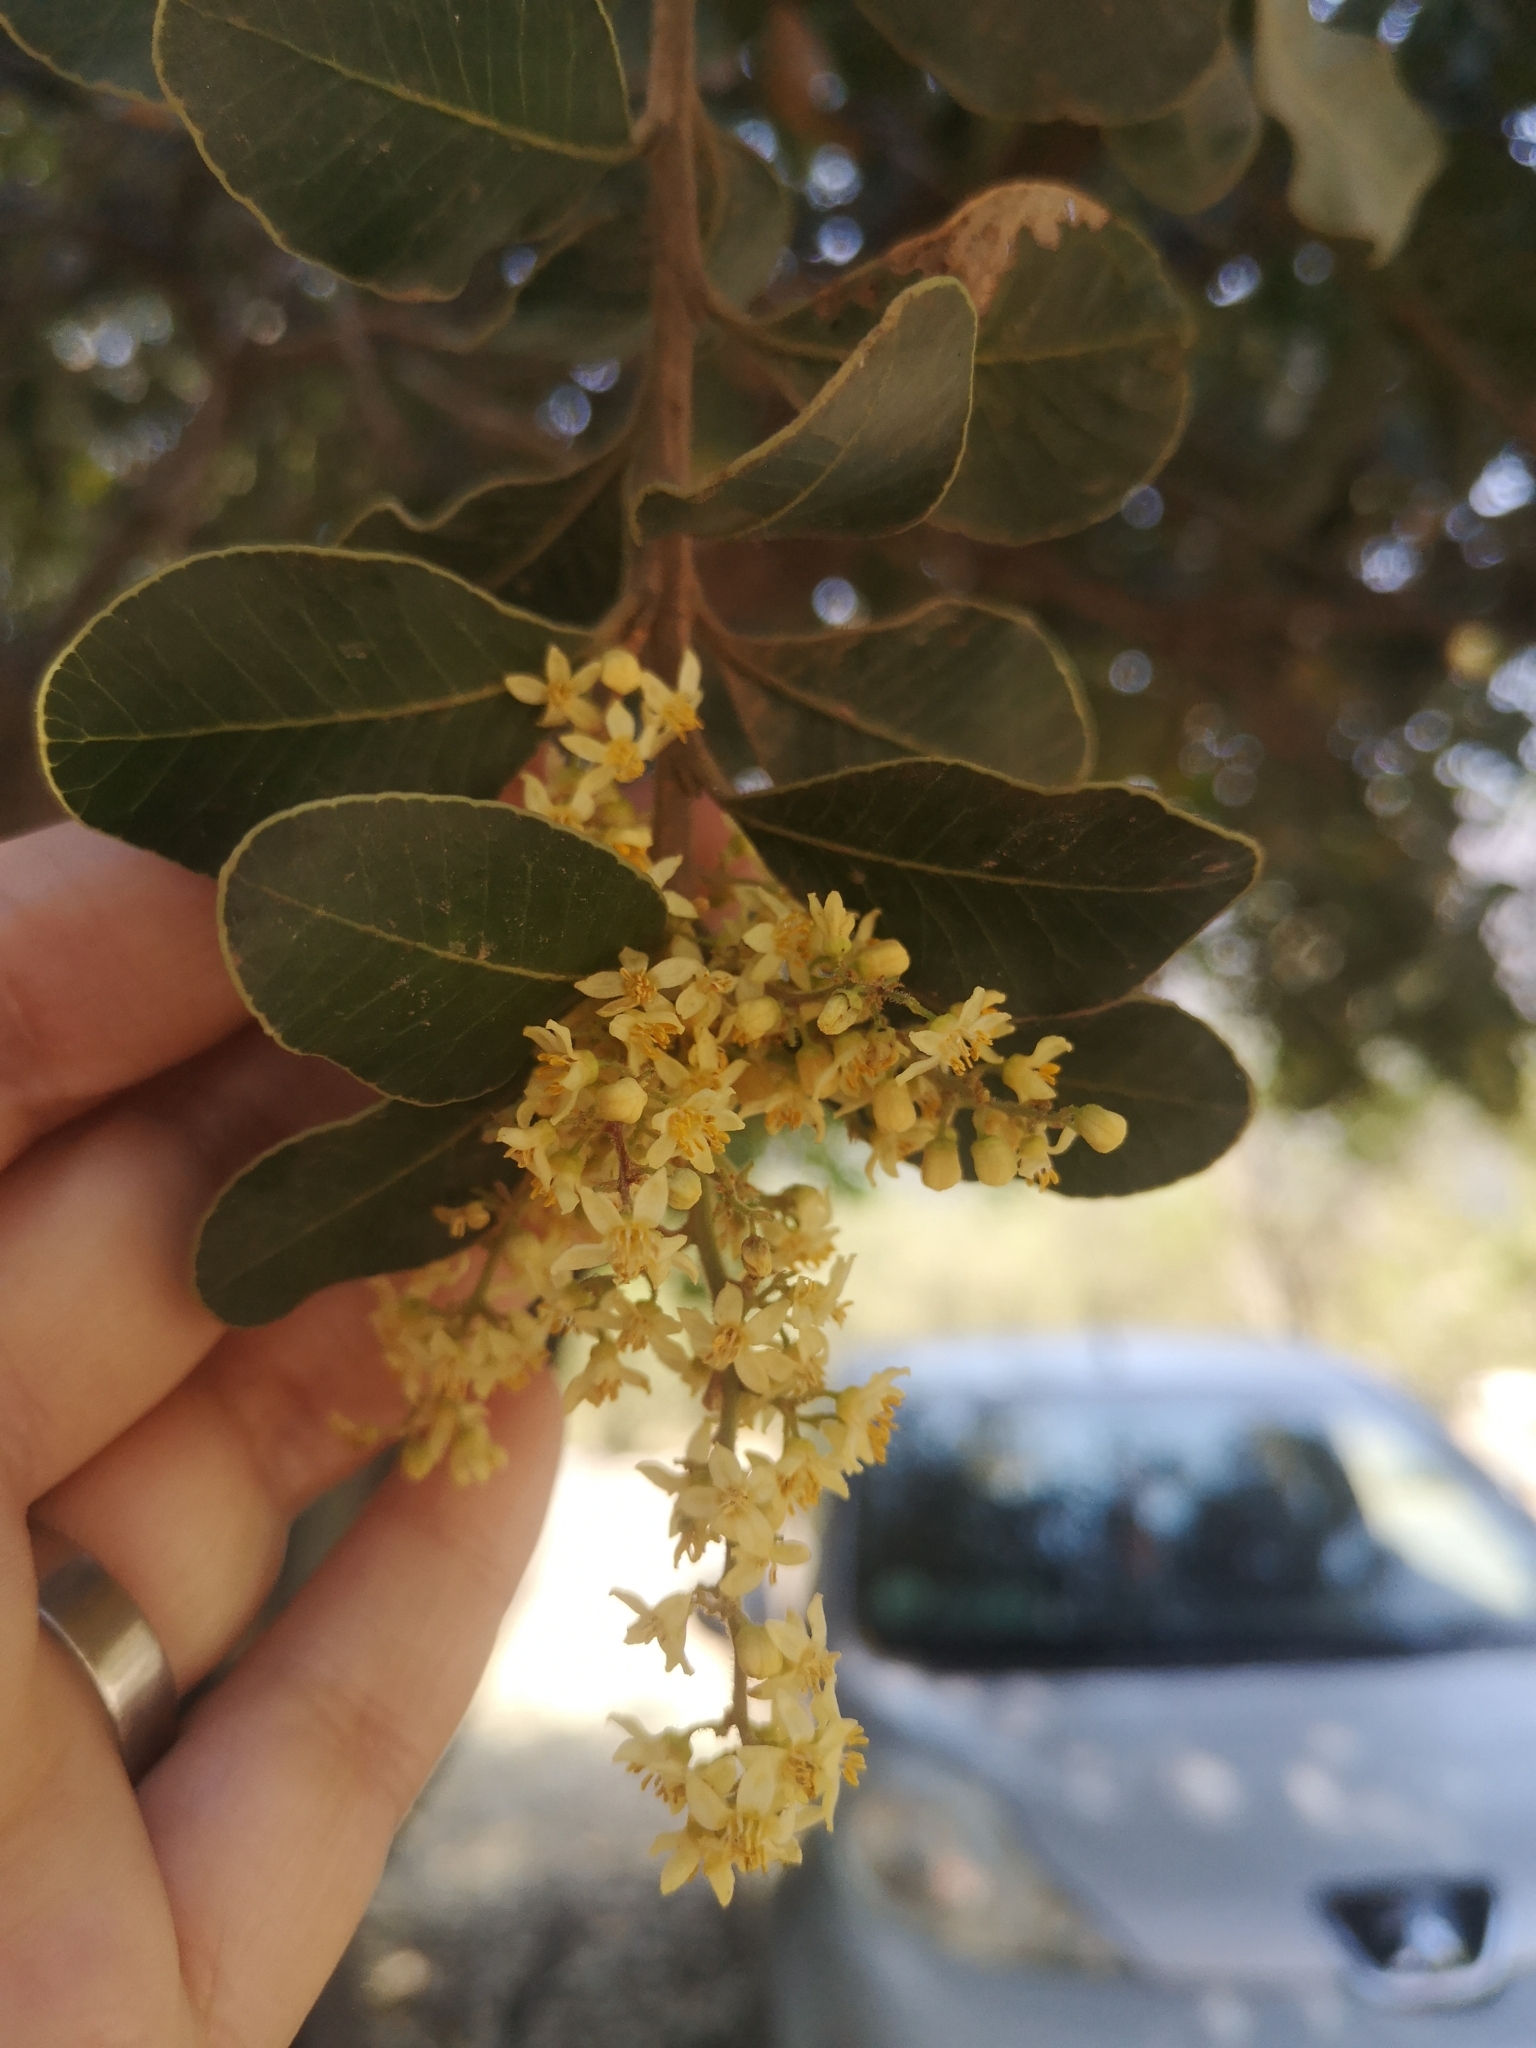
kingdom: Plantae
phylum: Tracheophyta
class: Magnoliopsida
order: Sapindales
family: Anacardiaceae
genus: Lithraea
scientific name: Lithraea caustica
